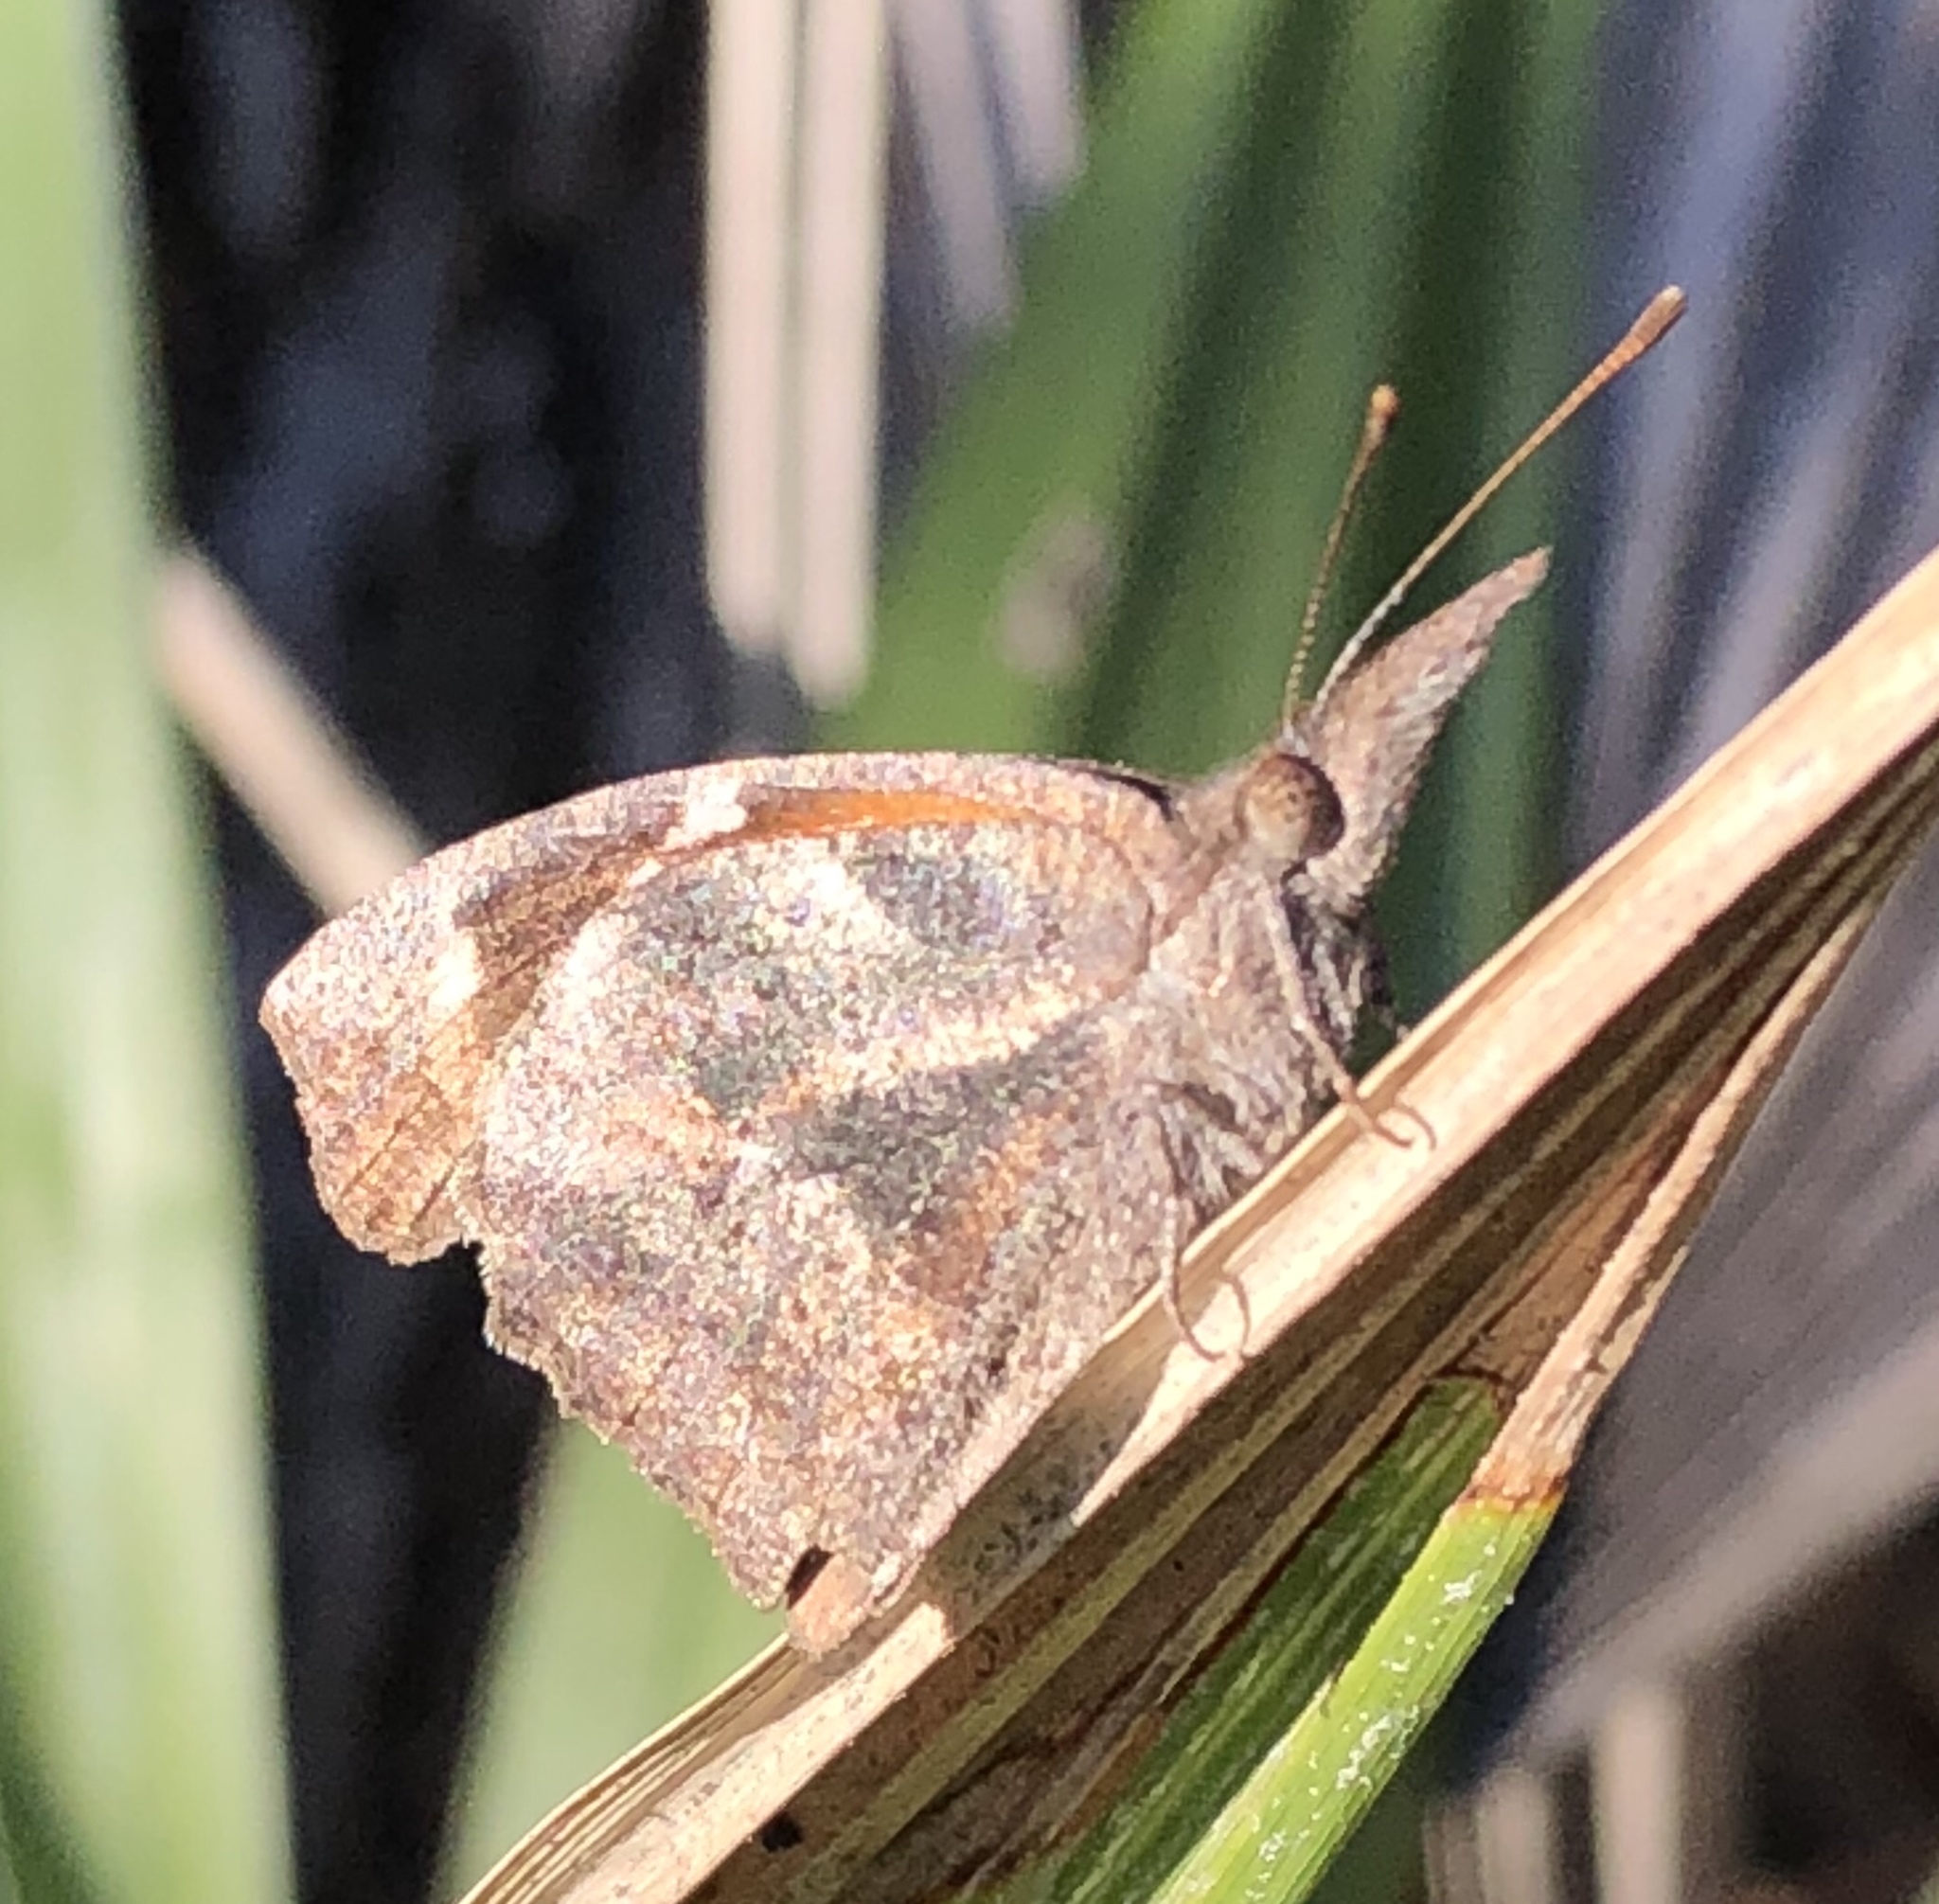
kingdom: Animalia
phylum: Arthropoda
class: Insecta
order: Lepidoptera
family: Nymphalidae
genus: Libytheana
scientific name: Libytheana carinenta
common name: American snout
